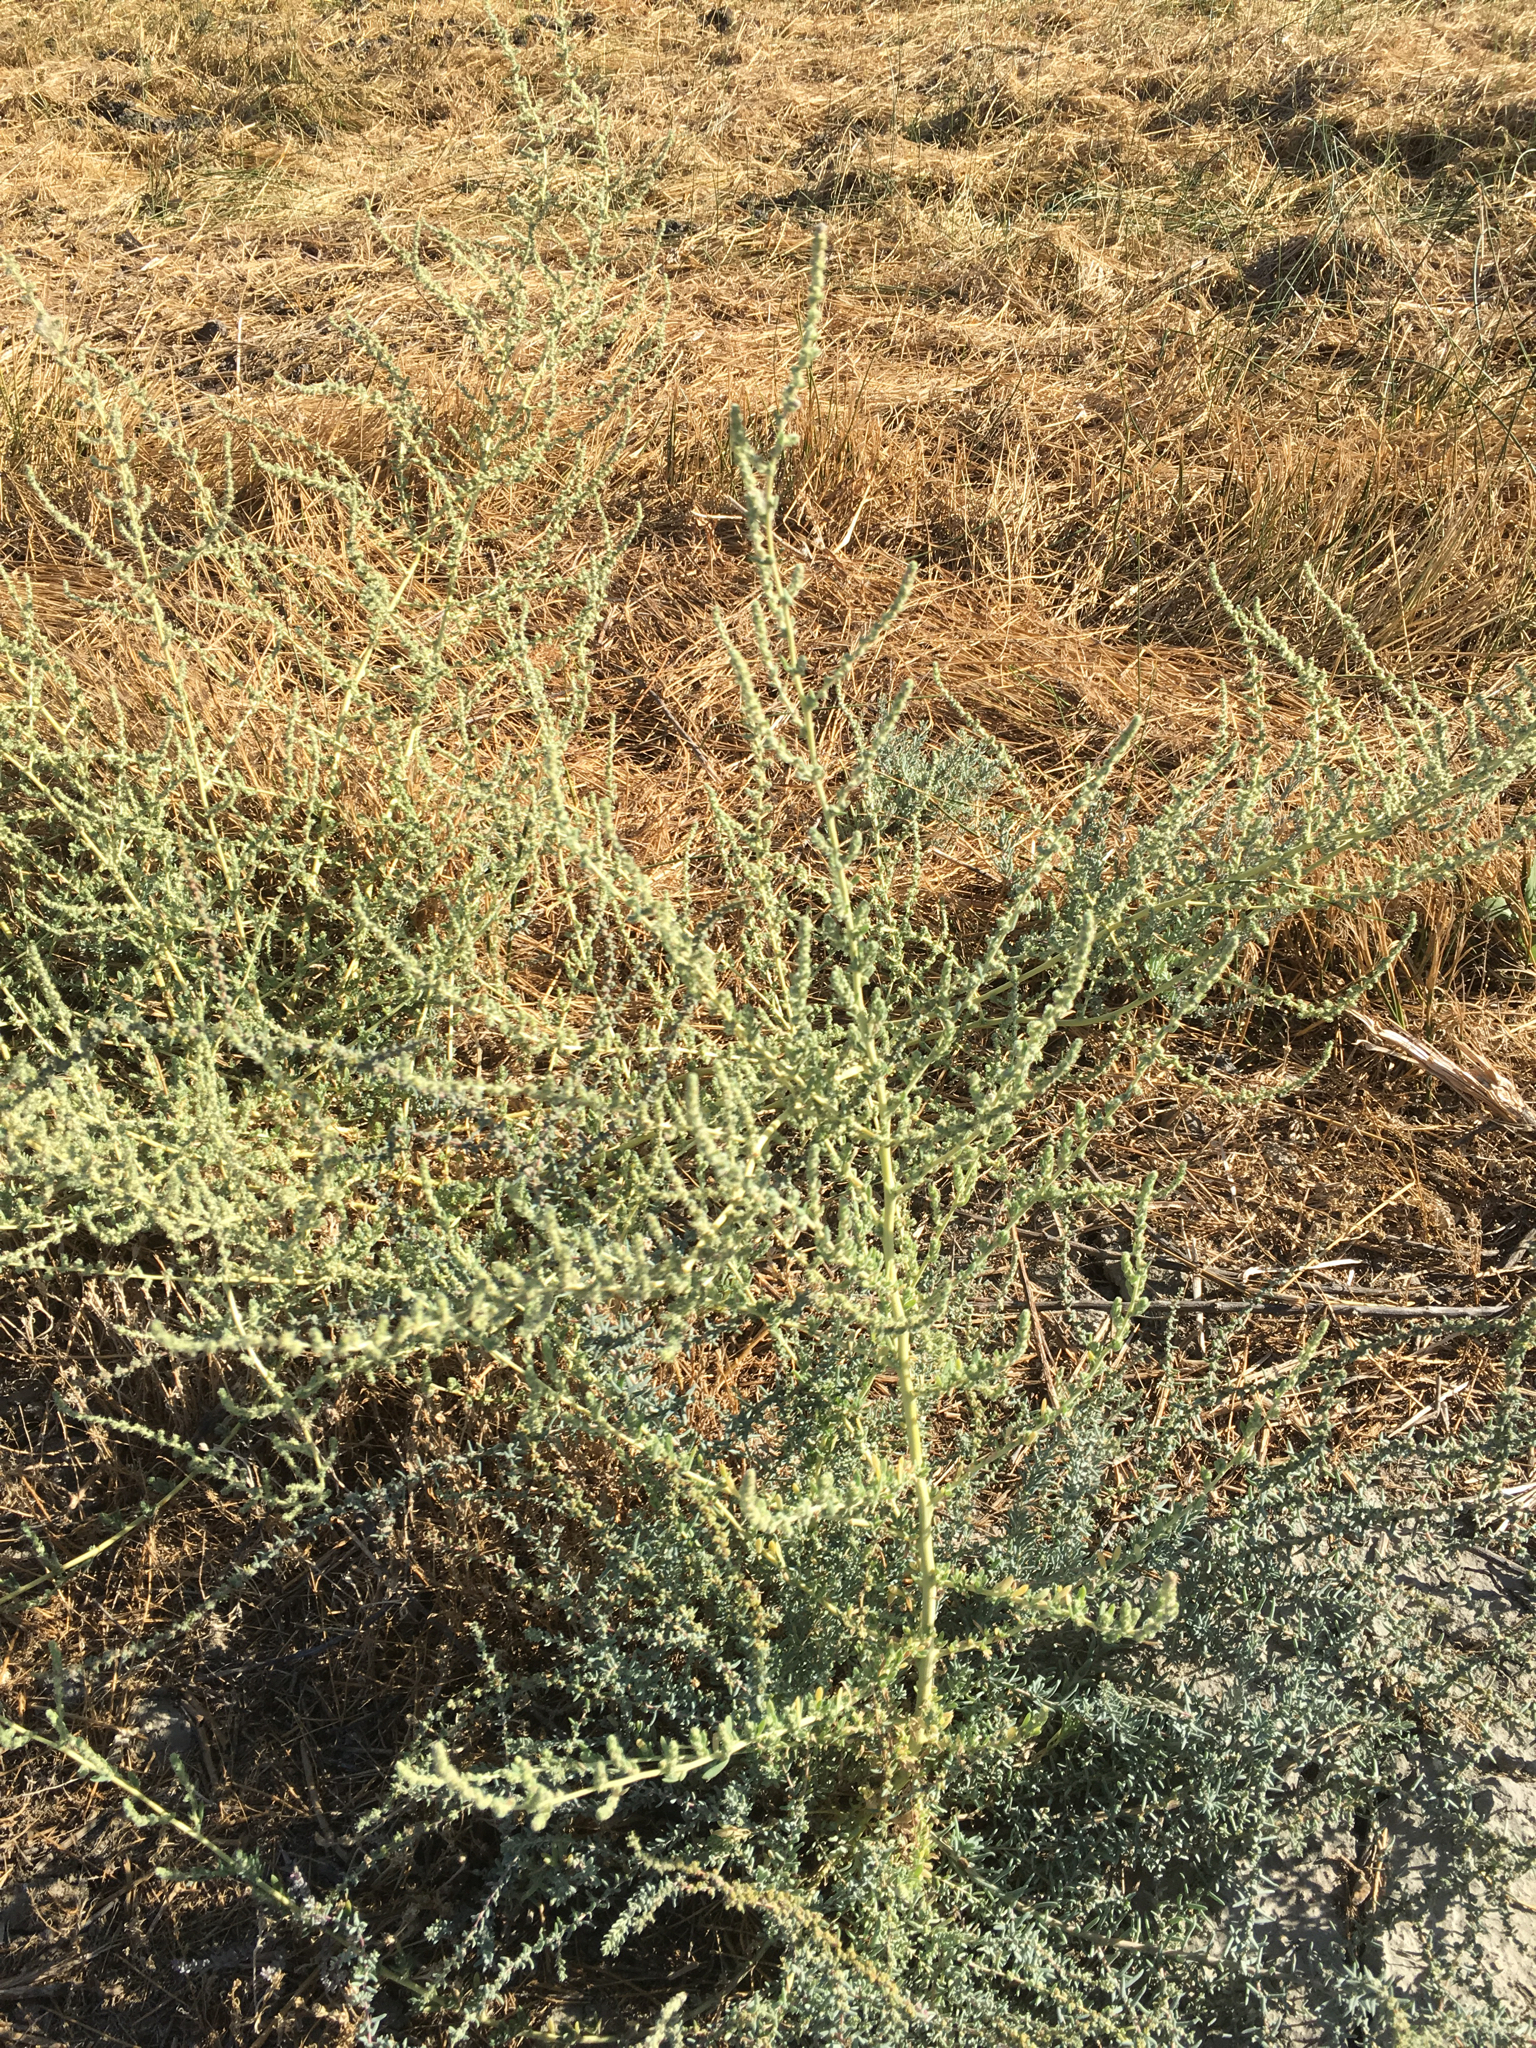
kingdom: Plantae
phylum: Tracheophyta
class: Magnoliopsida
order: Caryophyllales
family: Amaranthaceae
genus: Bassia
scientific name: Bassia hyssopifolia
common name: Fivehorn smotherweed
